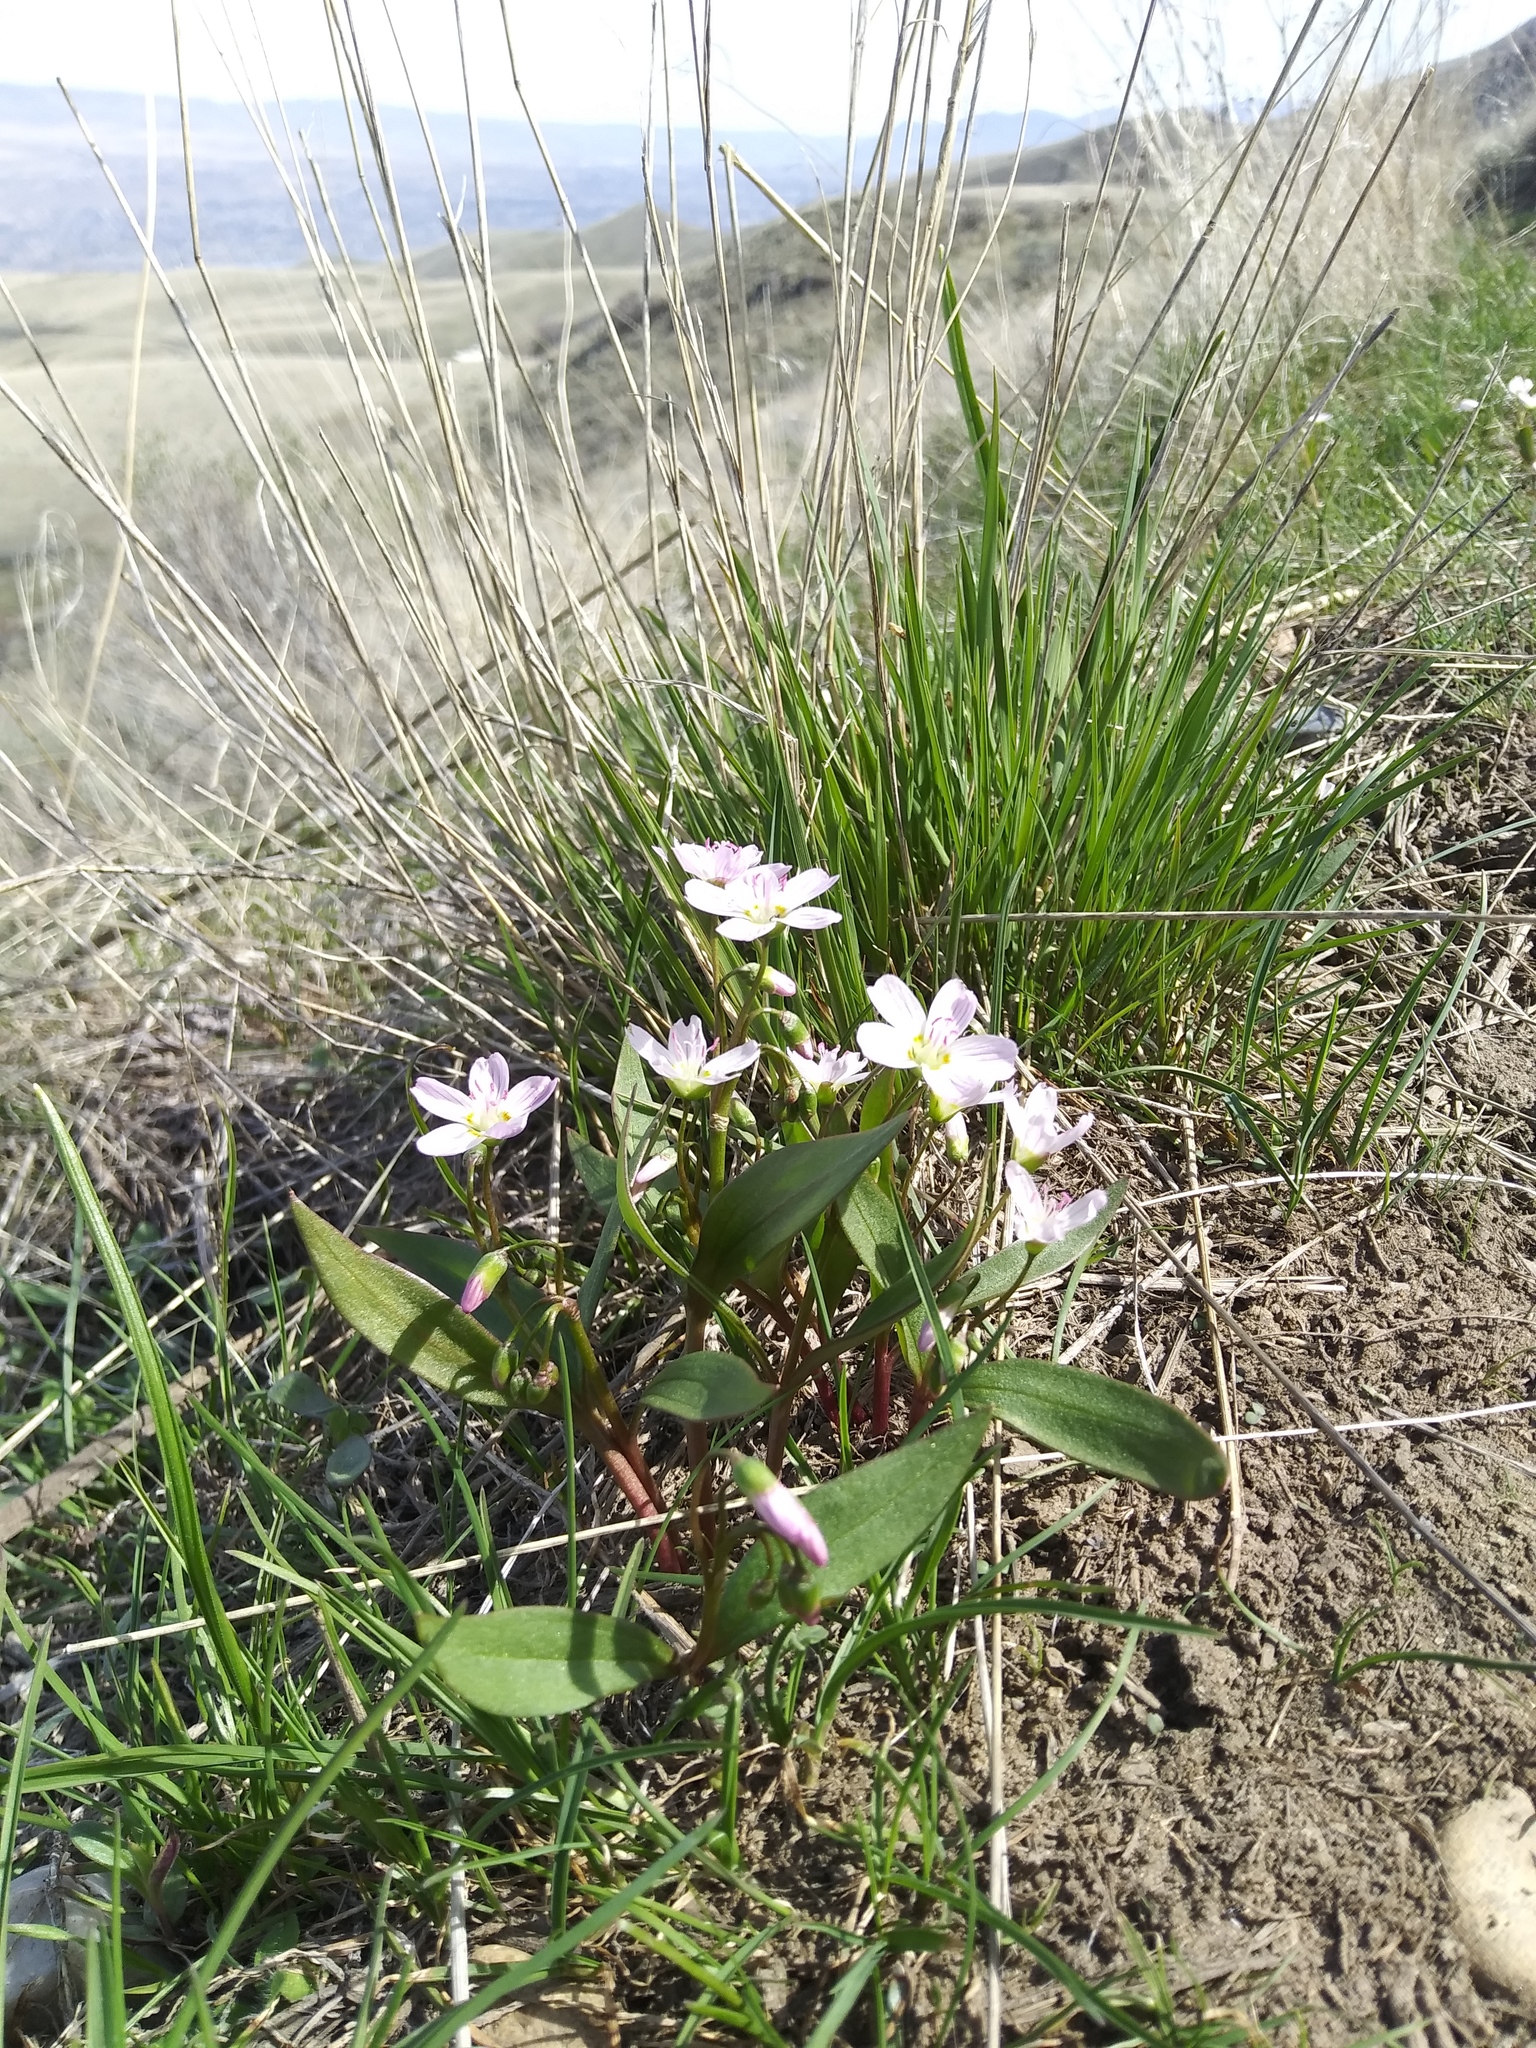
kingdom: Plantae
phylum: Tracheophyta
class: Magnoliopsida
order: Caryophyllales
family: Montiaceae
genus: Claytonia
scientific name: Claytonia lanceolata
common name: Western spring-beauty
